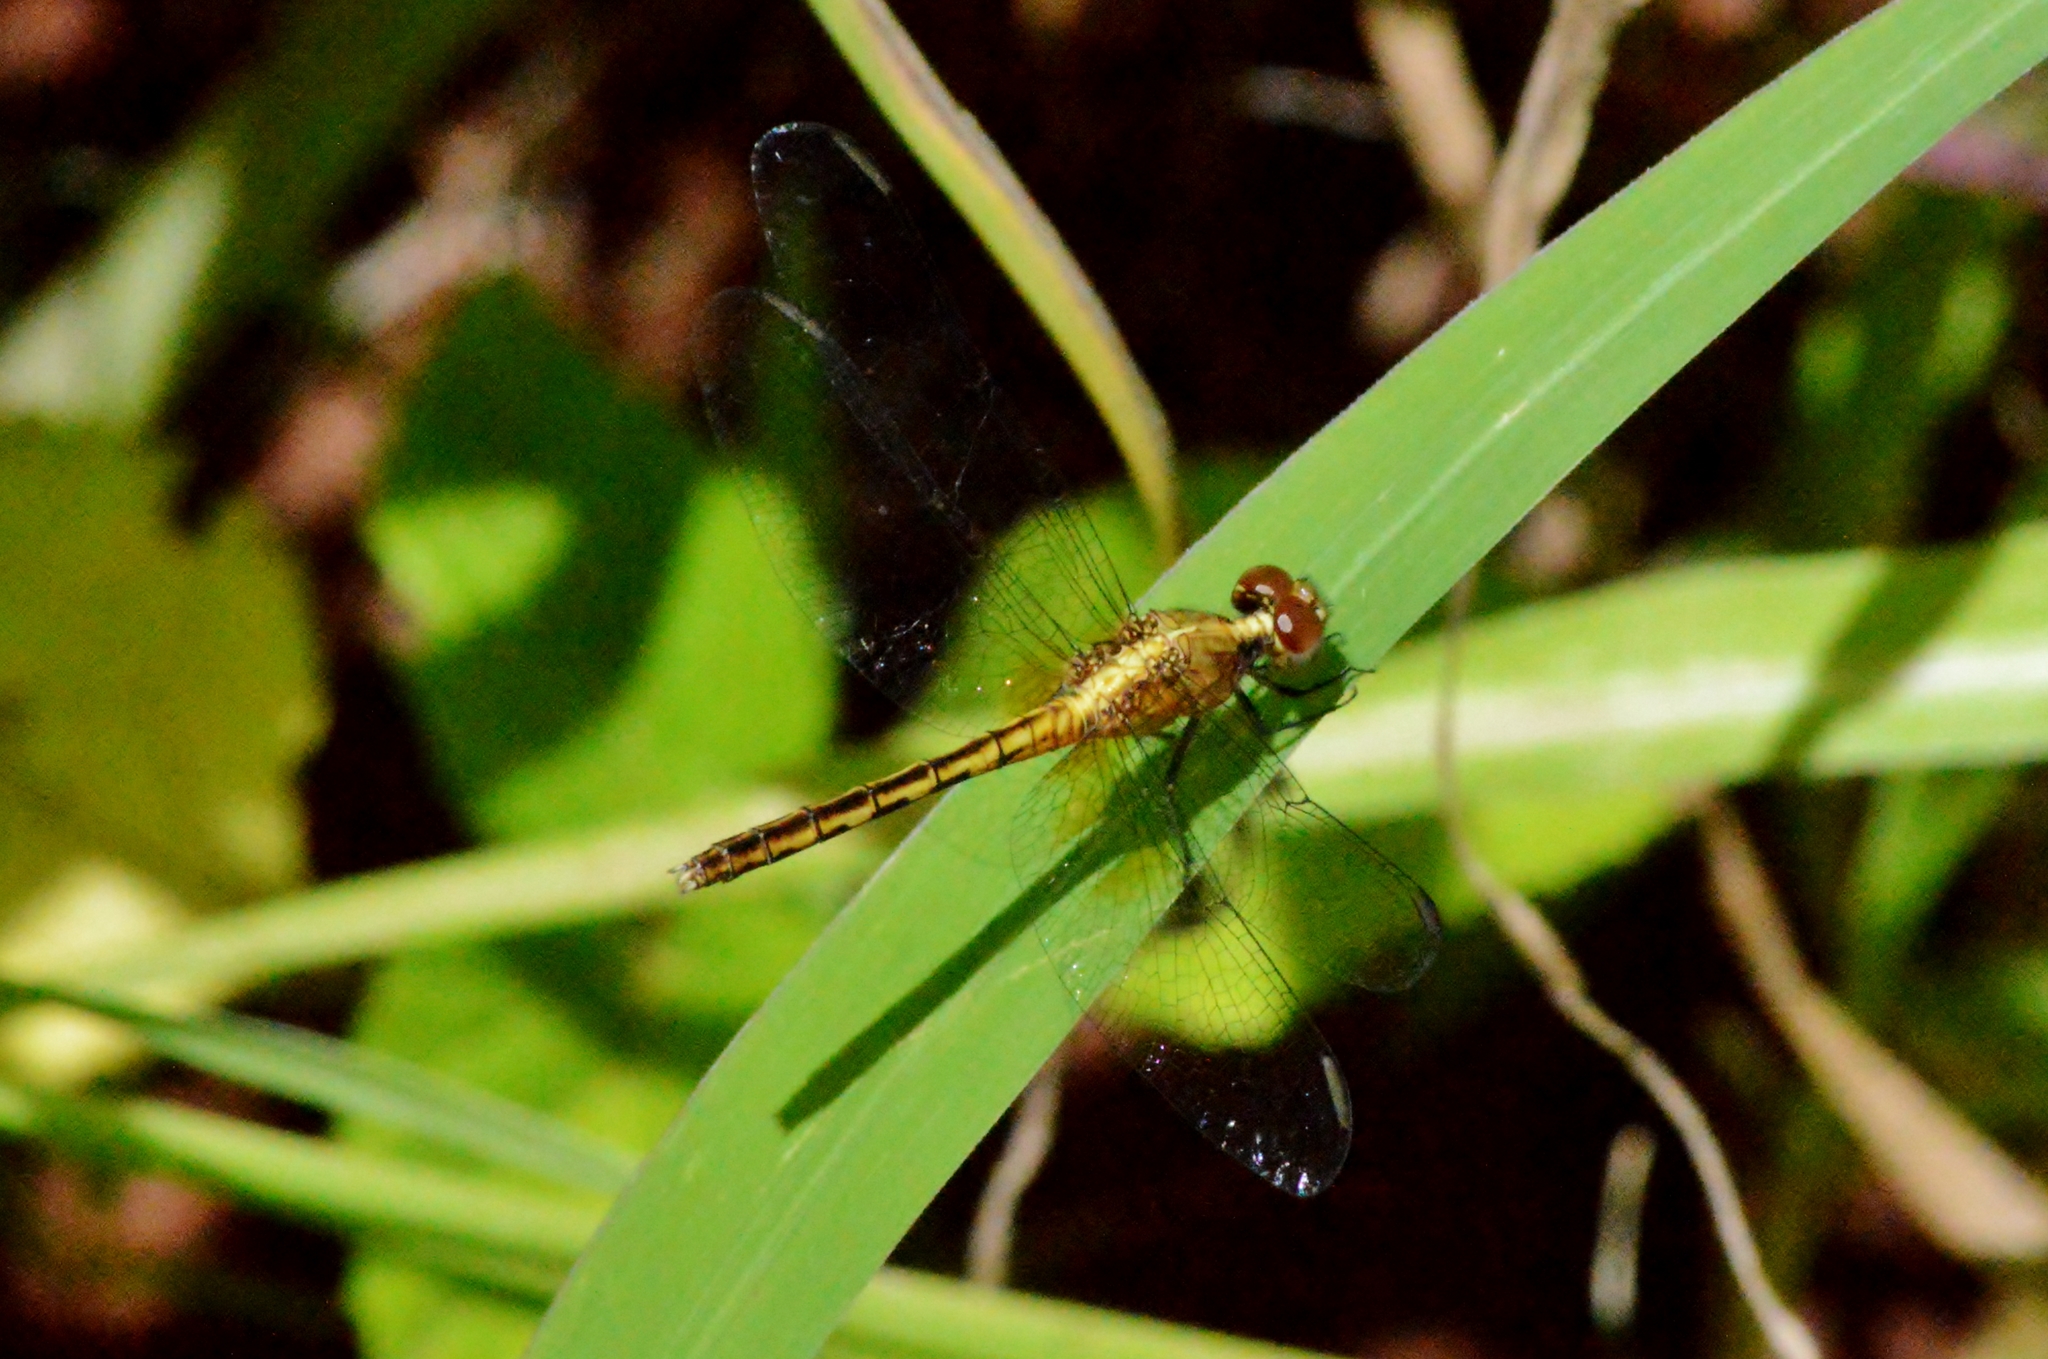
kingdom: Animalia
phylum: Arthropoda
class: Insecta
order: Odonata
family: Libellulidae
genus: Erythrodiplax
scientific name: Erythrodiplax umbrata
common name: Band-winged dragonlet
